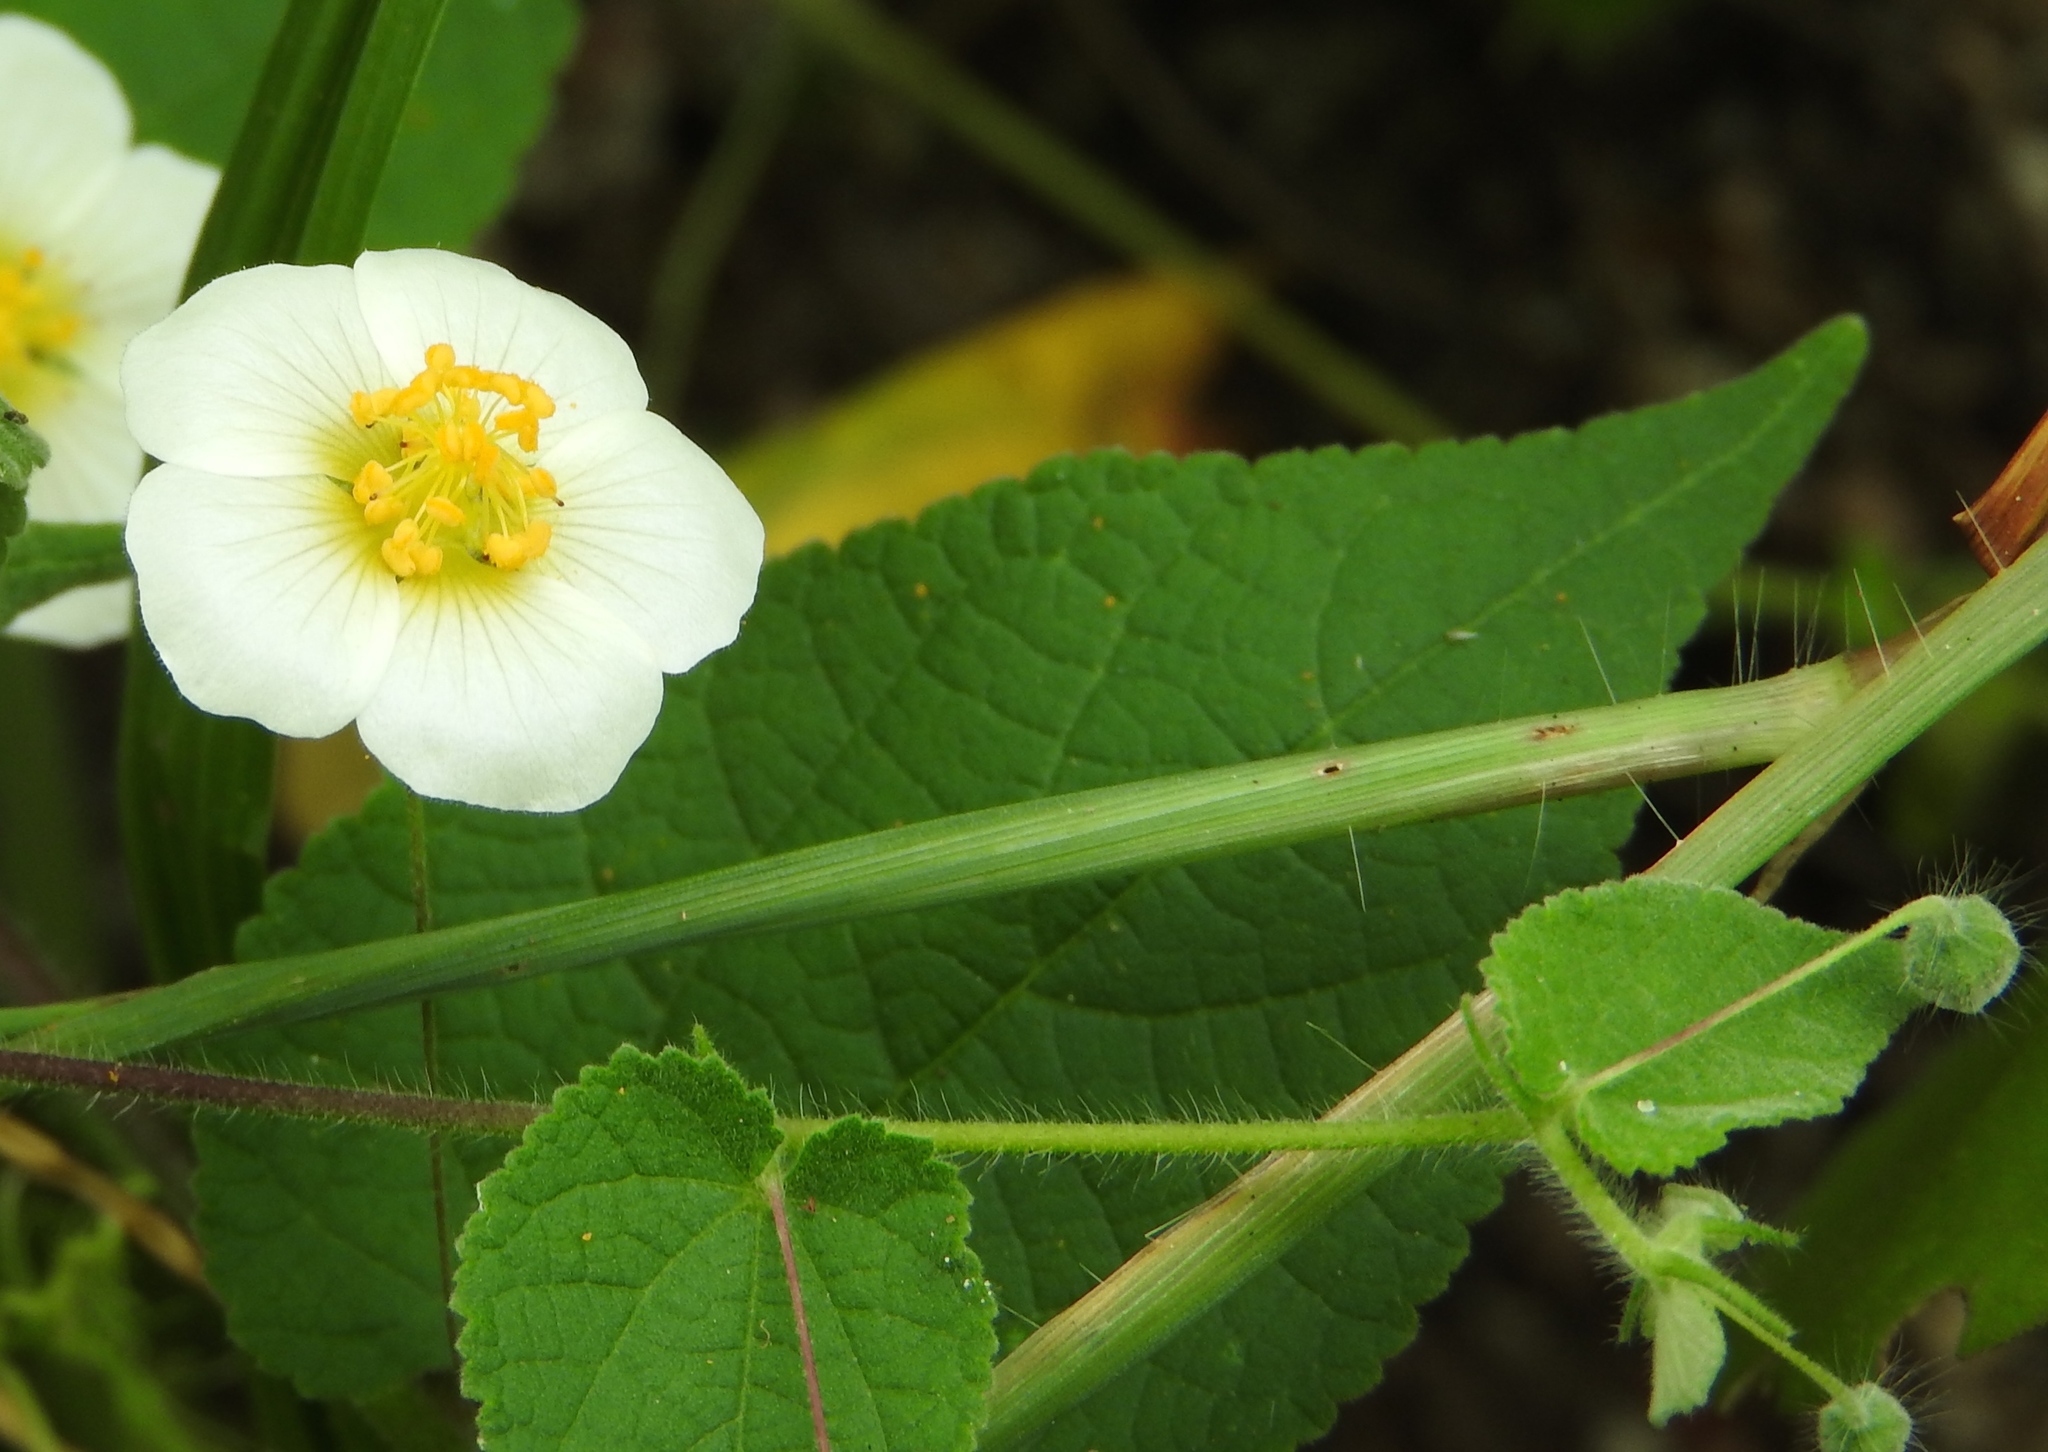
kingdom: Plantae
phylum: Tracheophyta
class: Magnoliopsida
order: Malvales
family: Malvaceae
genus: Herissantia
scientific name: Herissantia crispa
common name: Bladdermallow
